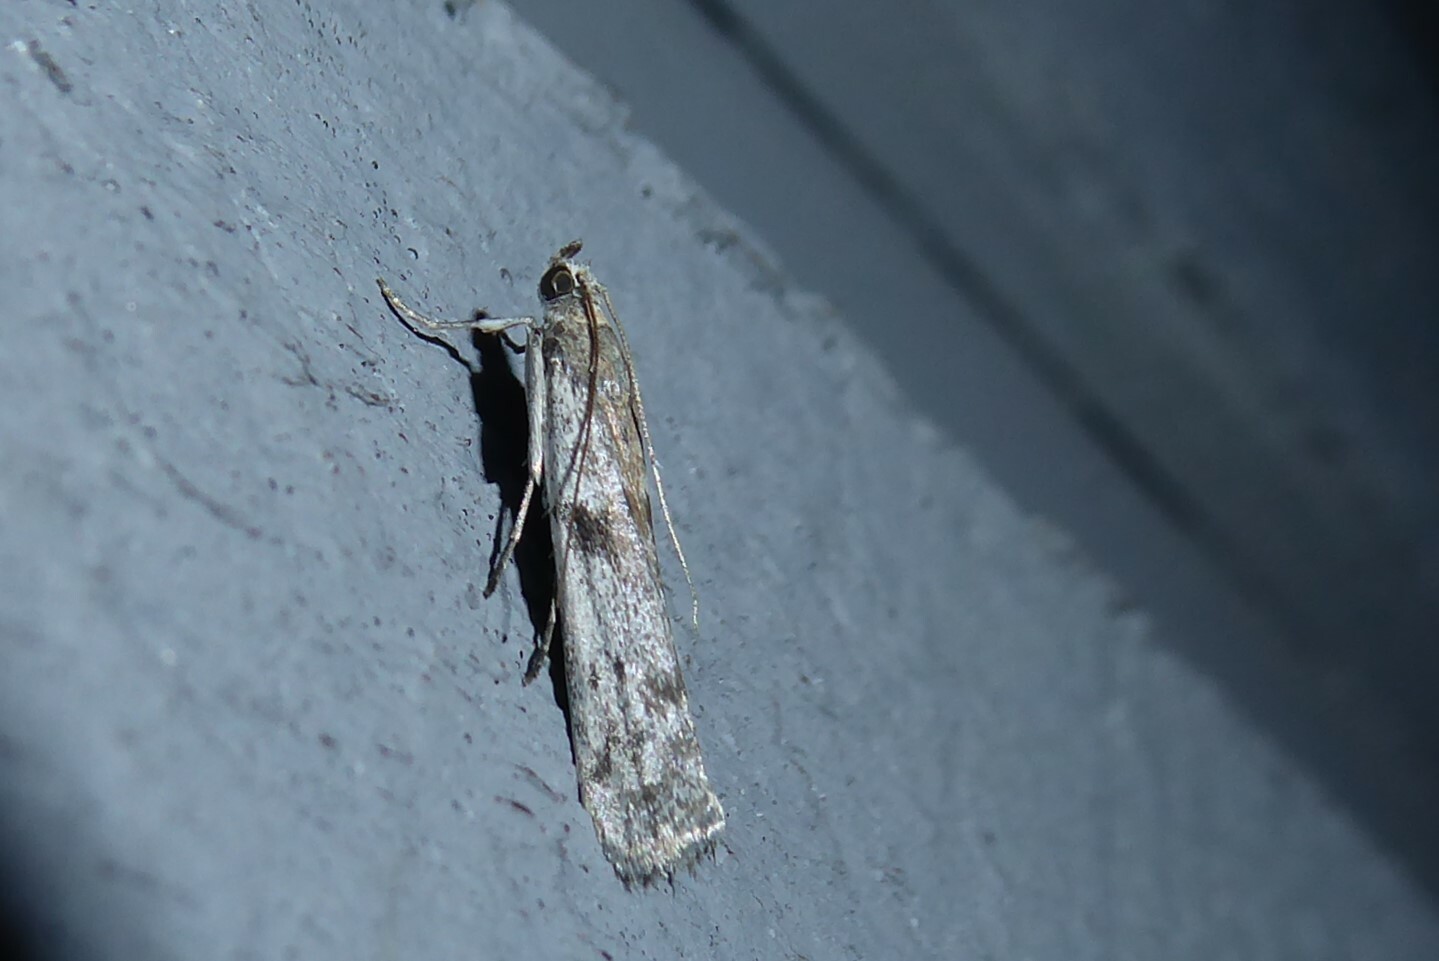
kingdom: Animalia
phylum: Arthropoda
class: Insecta
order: Lepidoptera
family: Pyralidae
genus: Patagoniodes
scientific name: Patagoniodes farinaria
